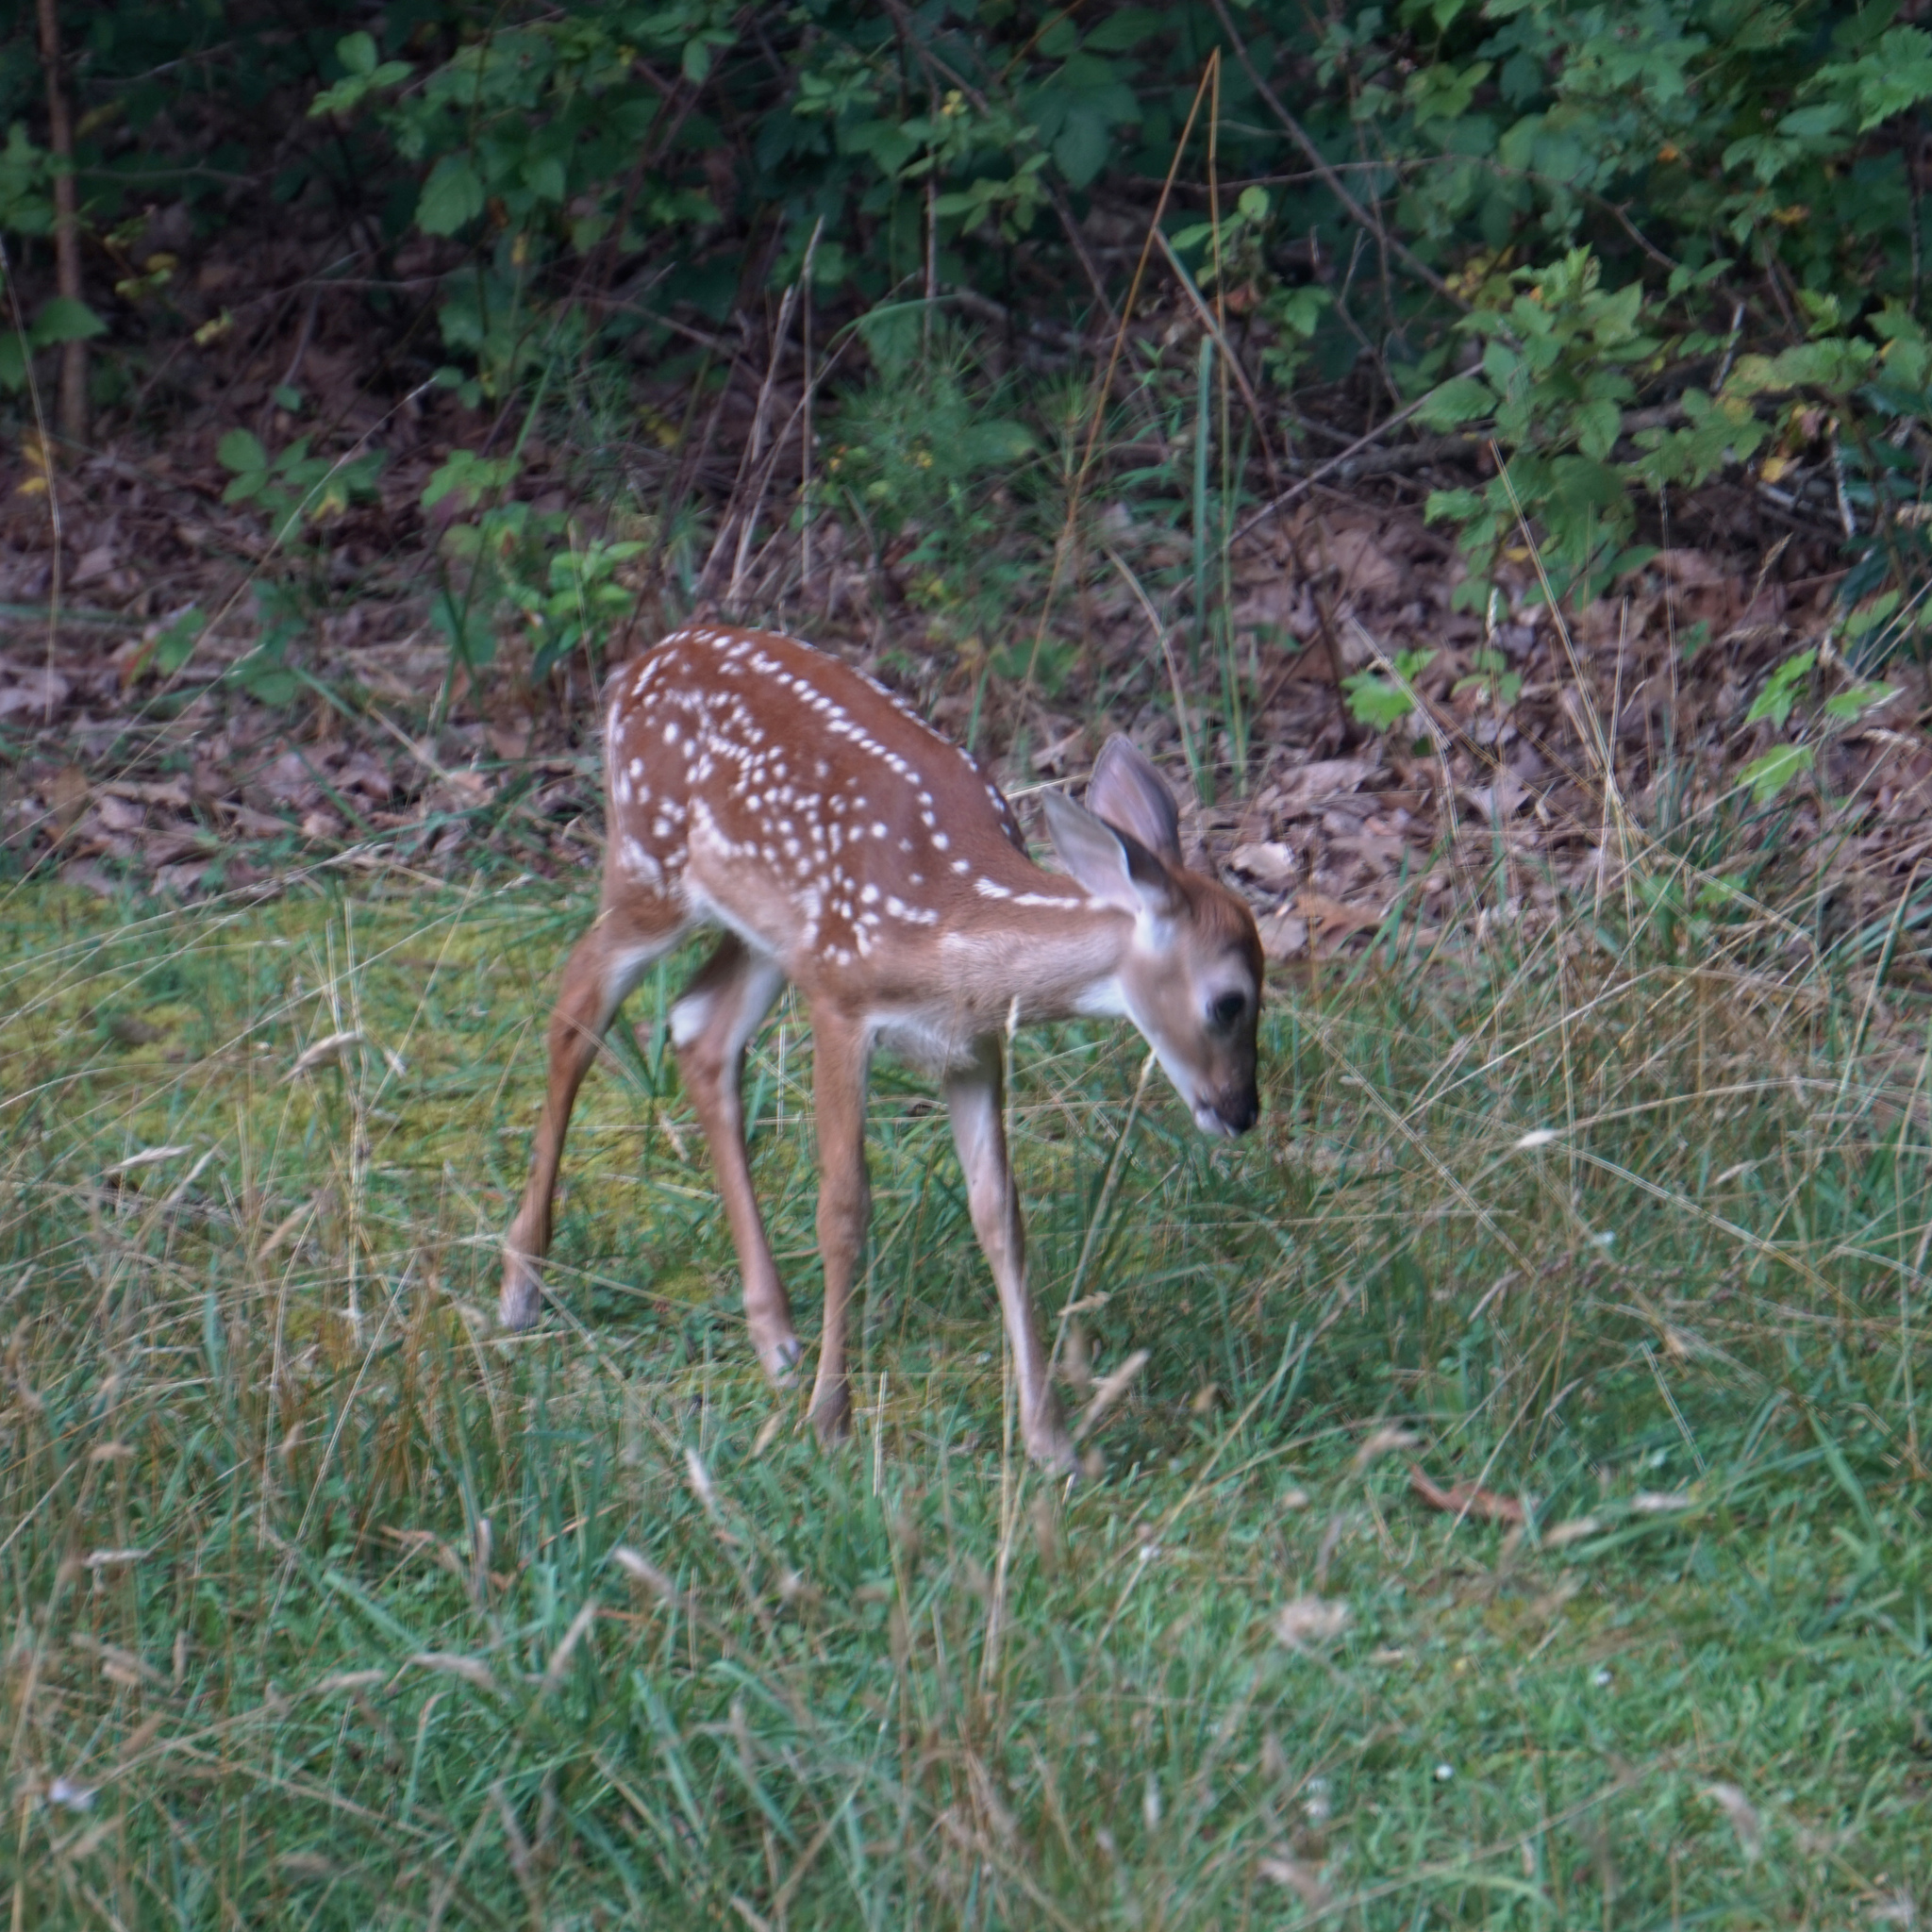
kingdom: Animalia
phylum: Chordata
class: Mammalia
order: Artiodactyla
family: Cervidae
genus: Odocoileus
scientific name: Odocoileus virginianus
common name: White-tailed deer
